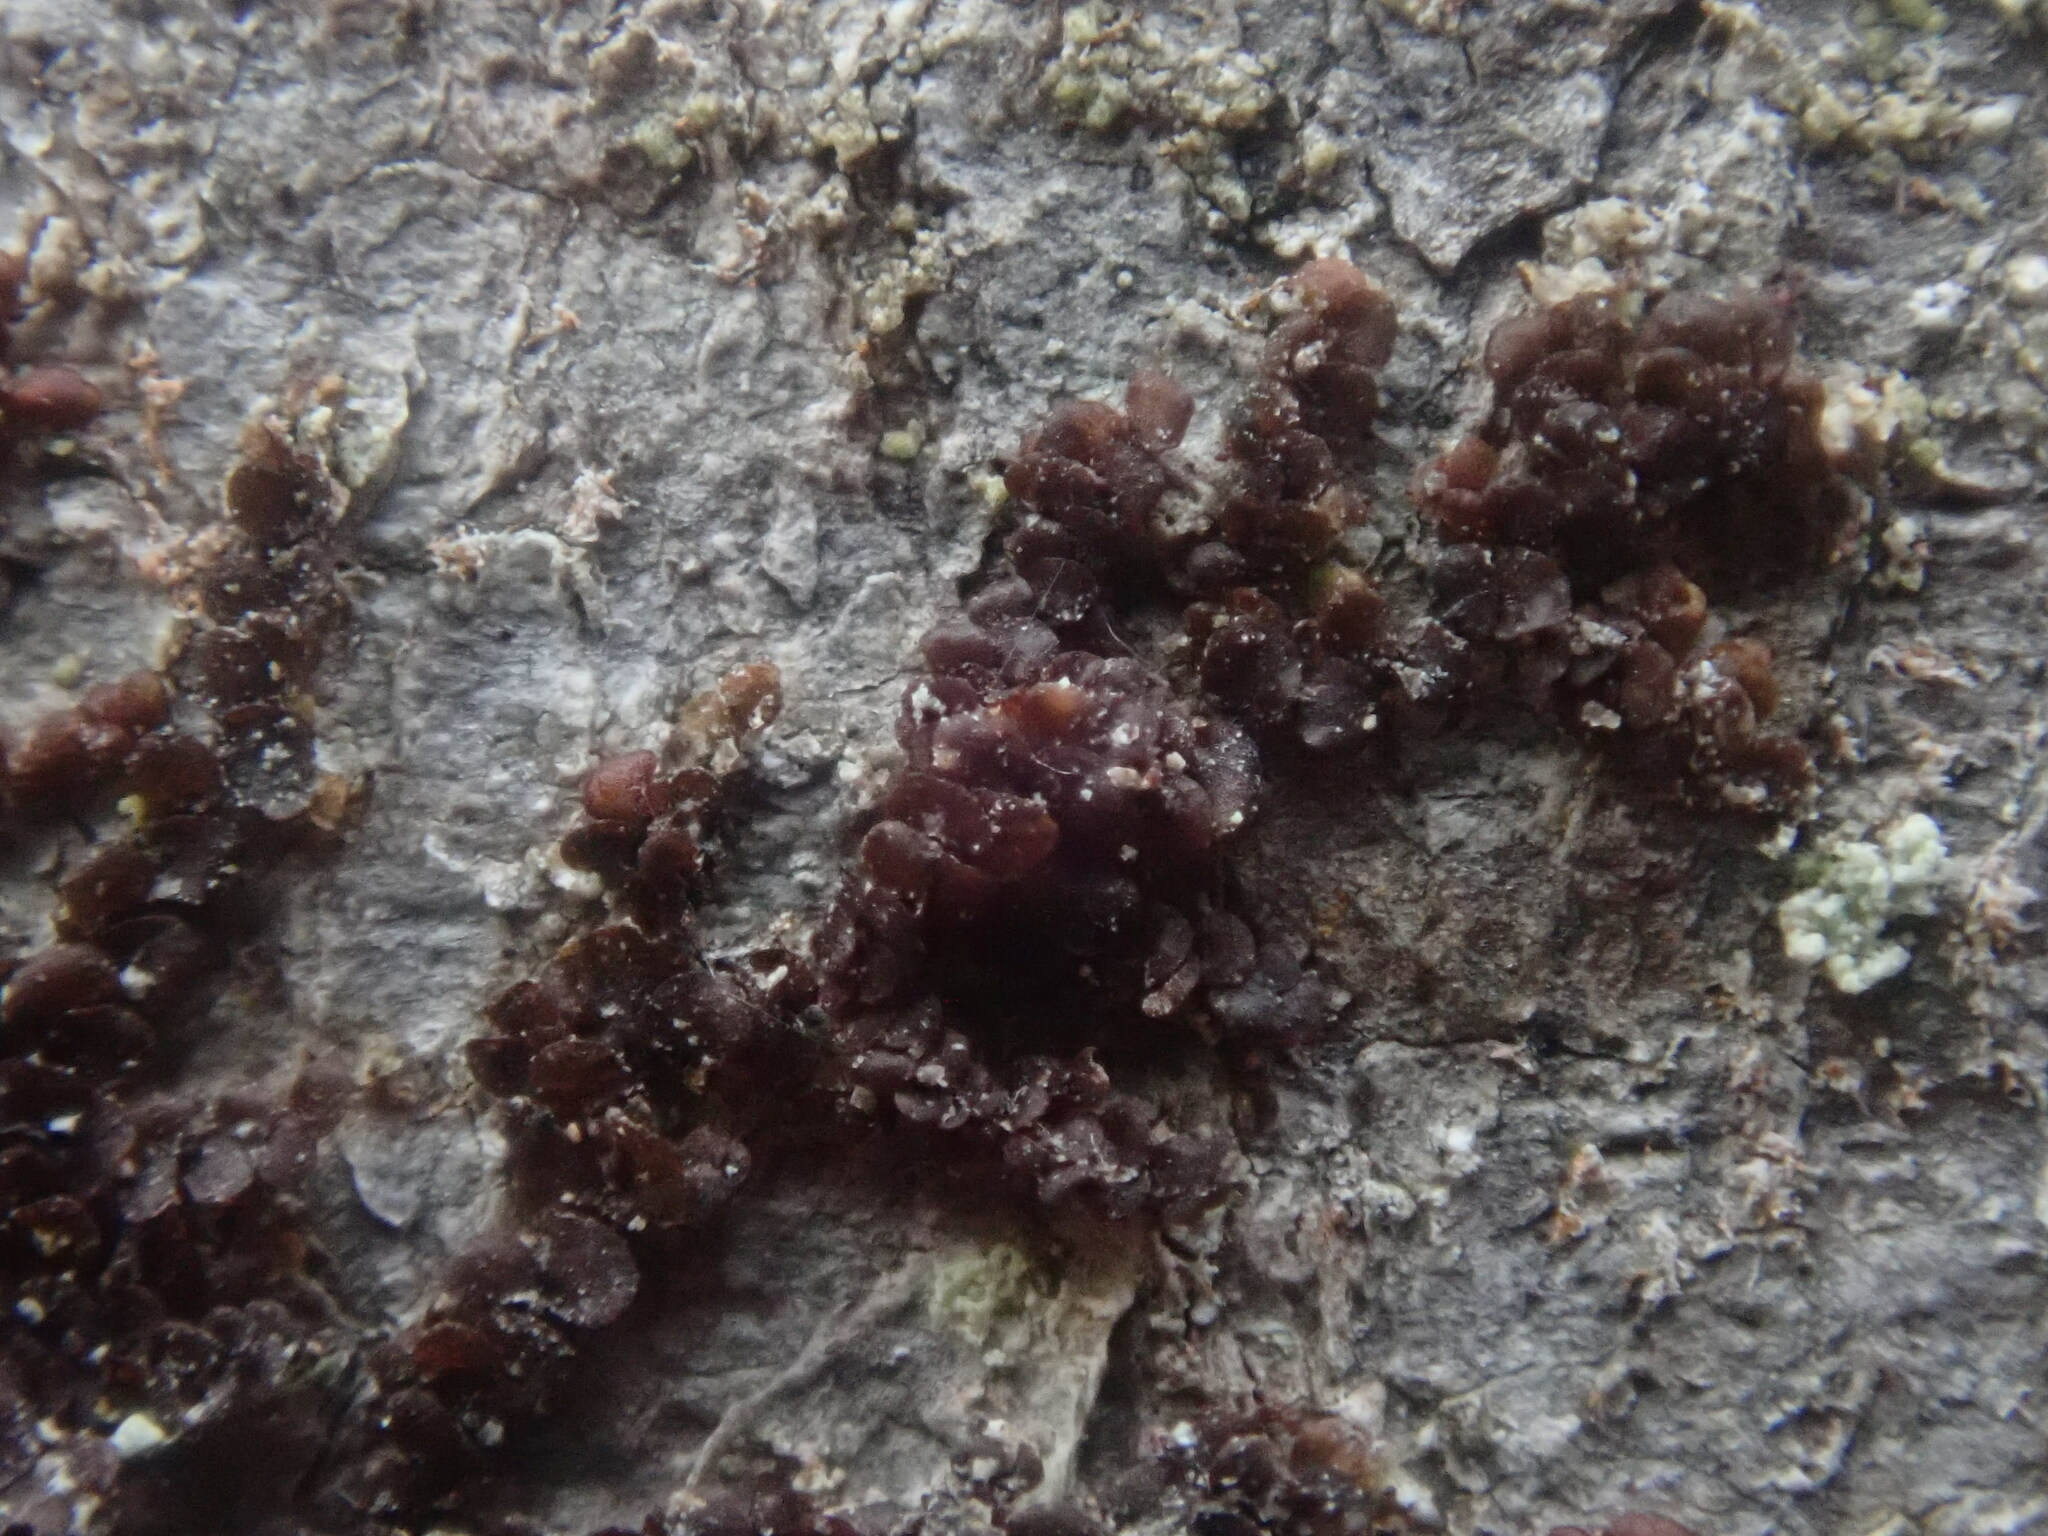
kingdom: Plantae
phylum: Marchantiophyta
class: Jungermanniopsida
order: Porellales
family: Frullaniaceae
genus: Frullania
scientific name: Frullania
